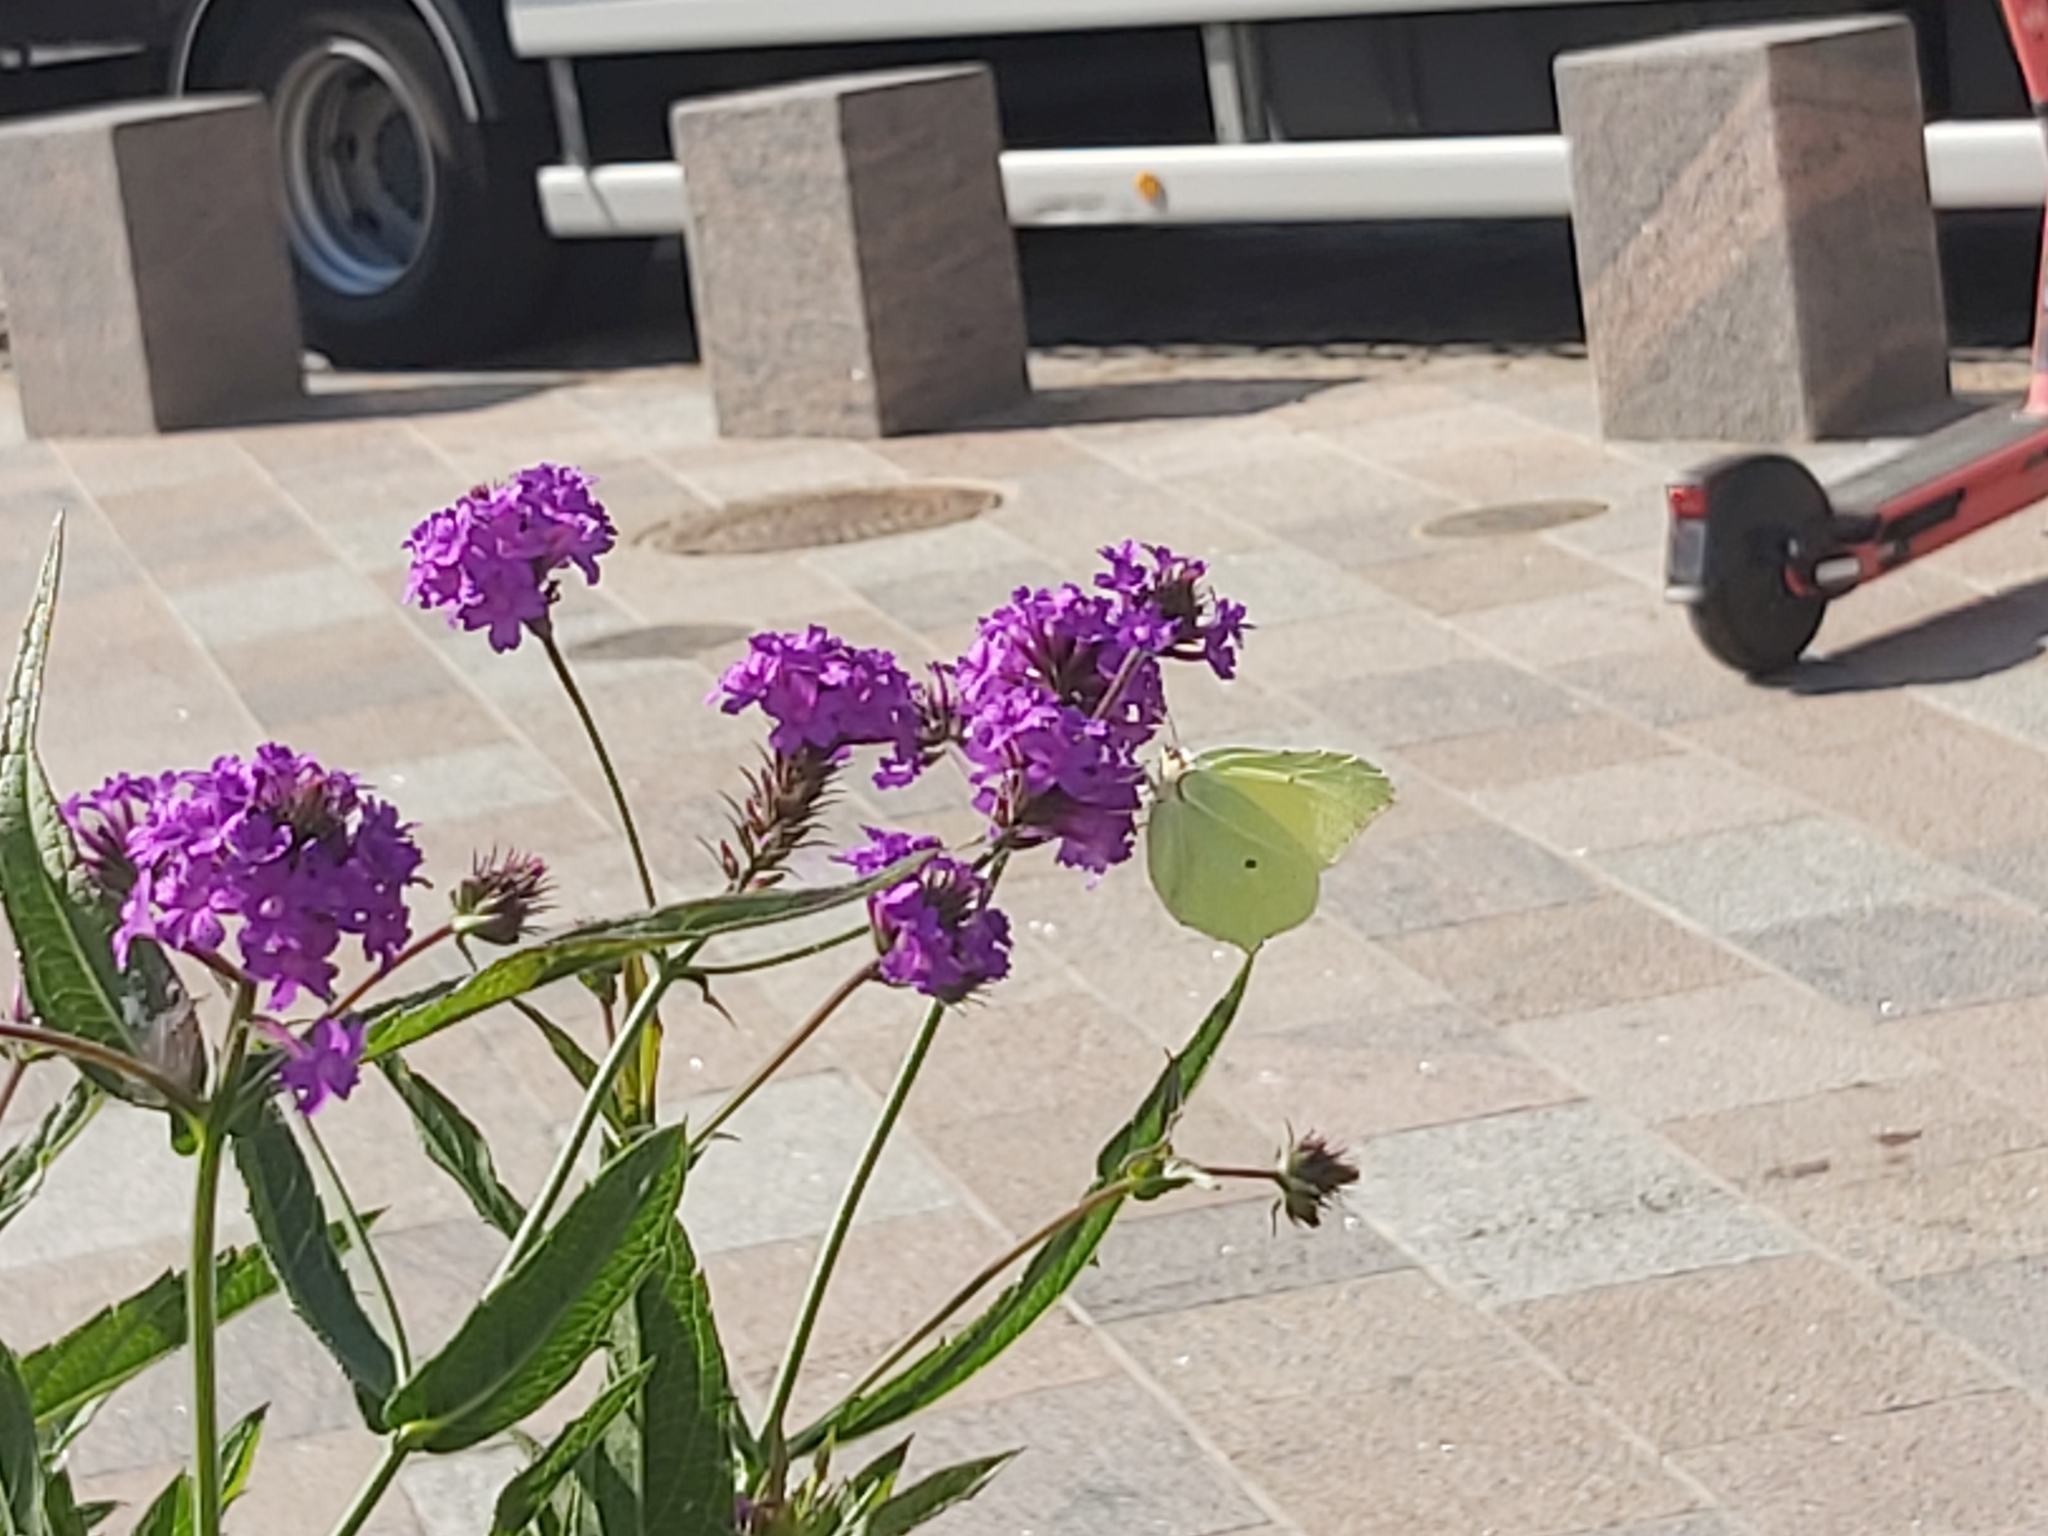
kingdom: Animalia
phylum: Arthropoda
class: Insecta
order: Lepidoptera
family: Pieridae
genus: Gonepteryx
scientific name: Gonepteryx rhamni
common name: Brimstone
